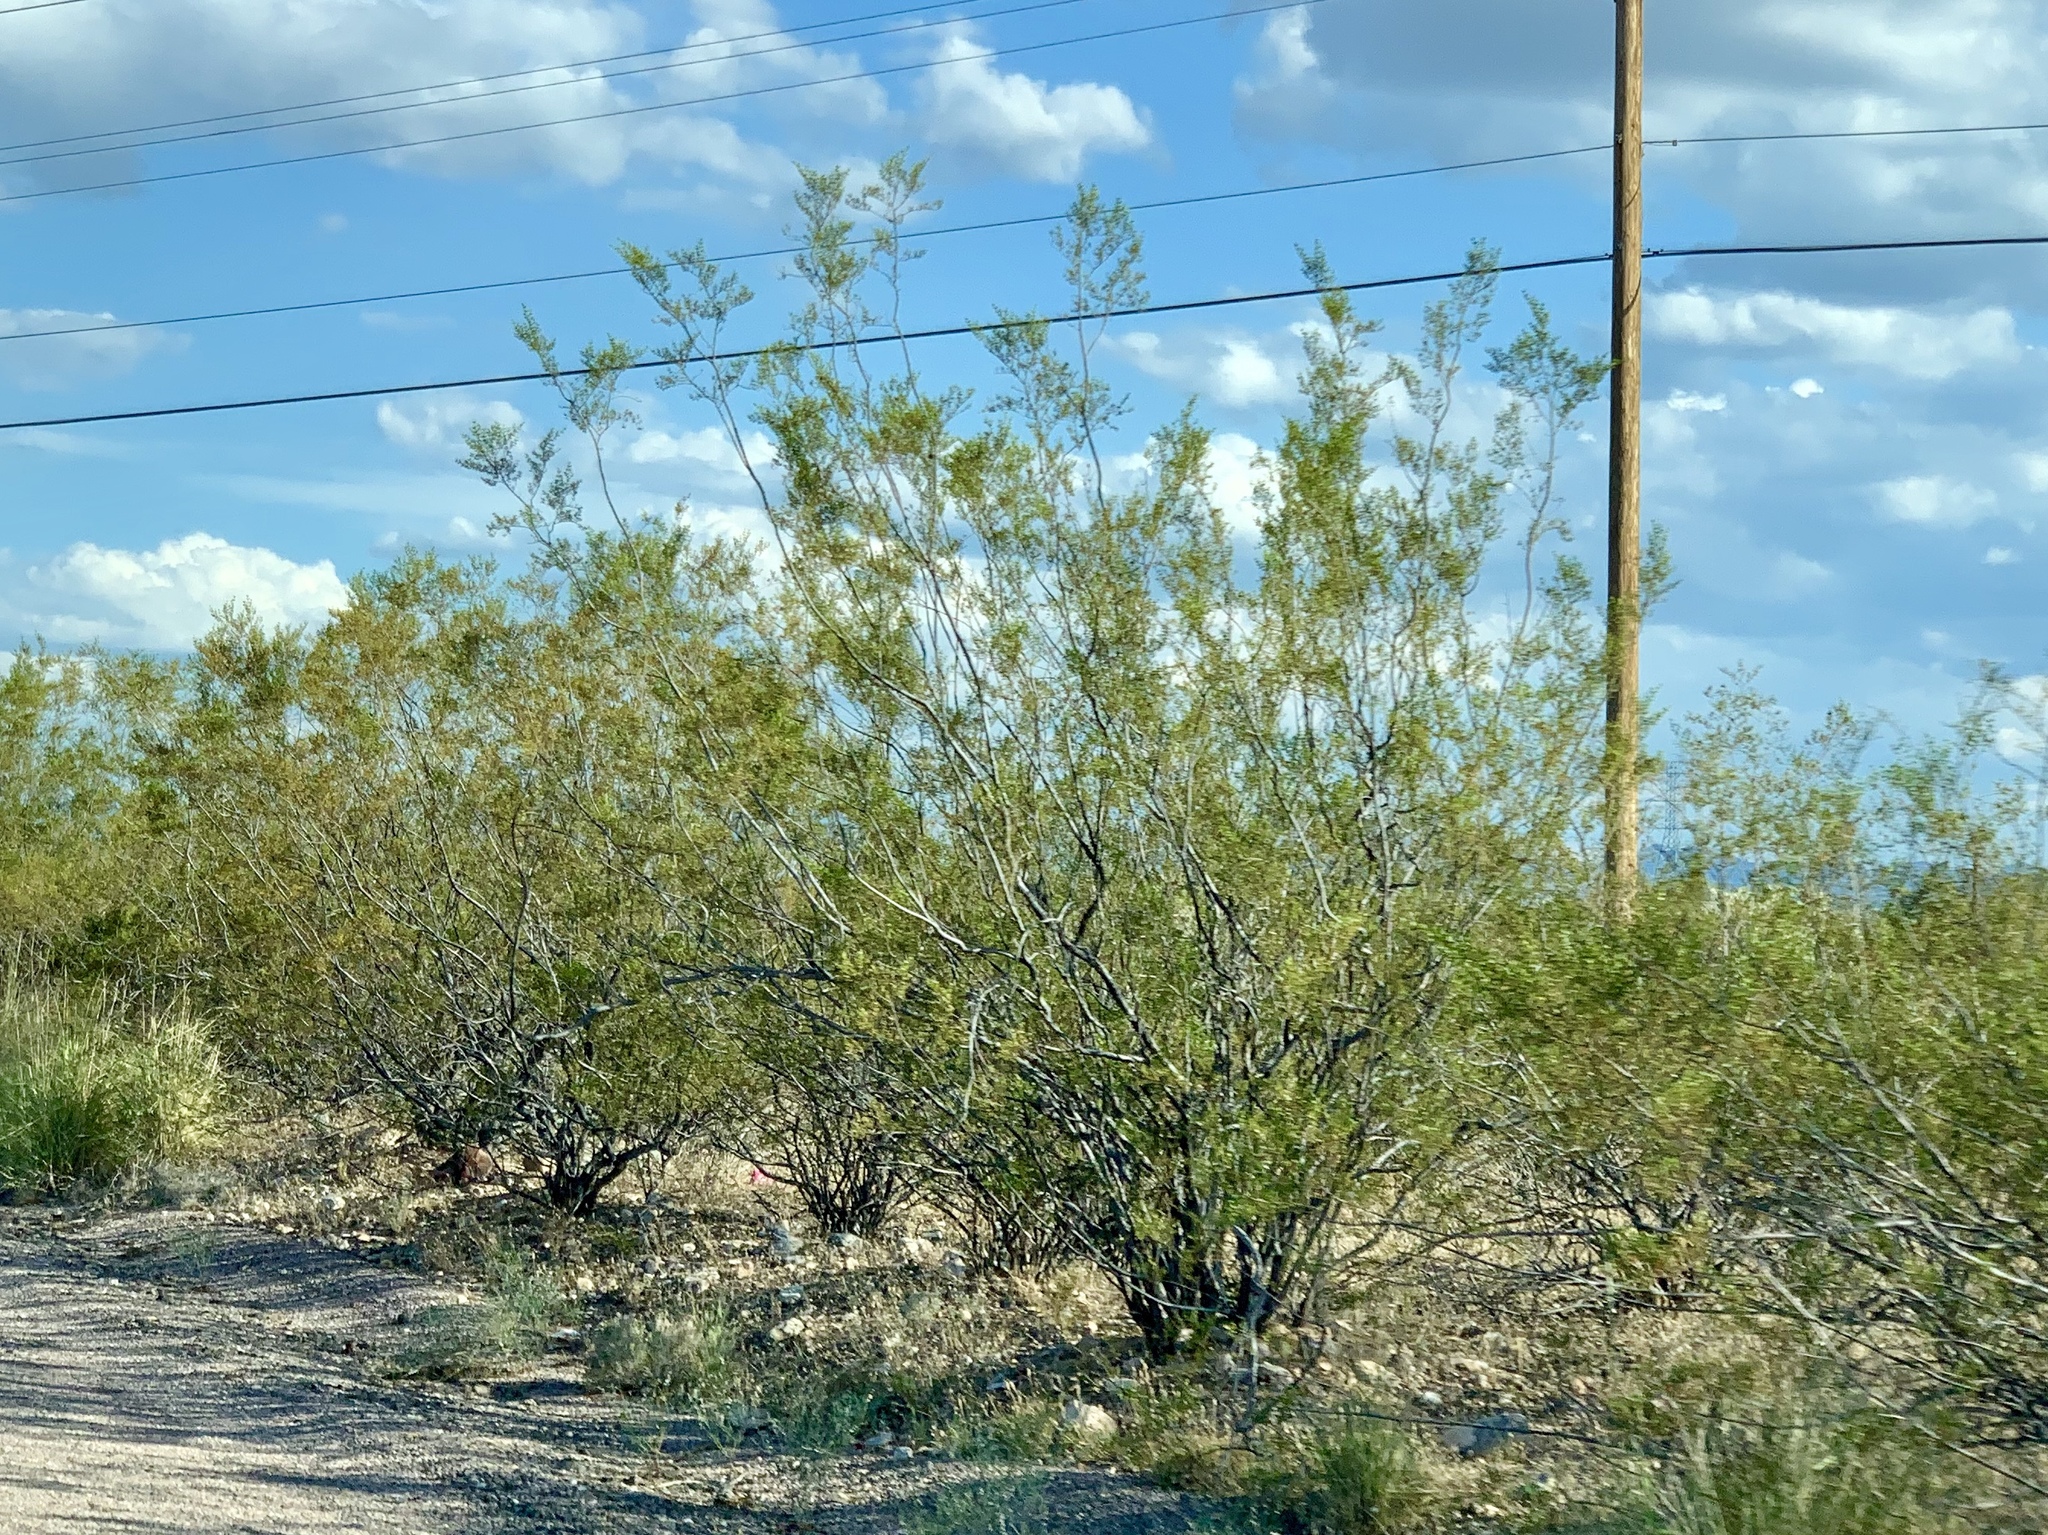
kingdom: Plantae
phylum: Tracheophyta
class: Magnoliopsida
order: Zygophyllales
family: Zygophyllaceae
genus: Larrea
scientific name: Larrea tridentata
